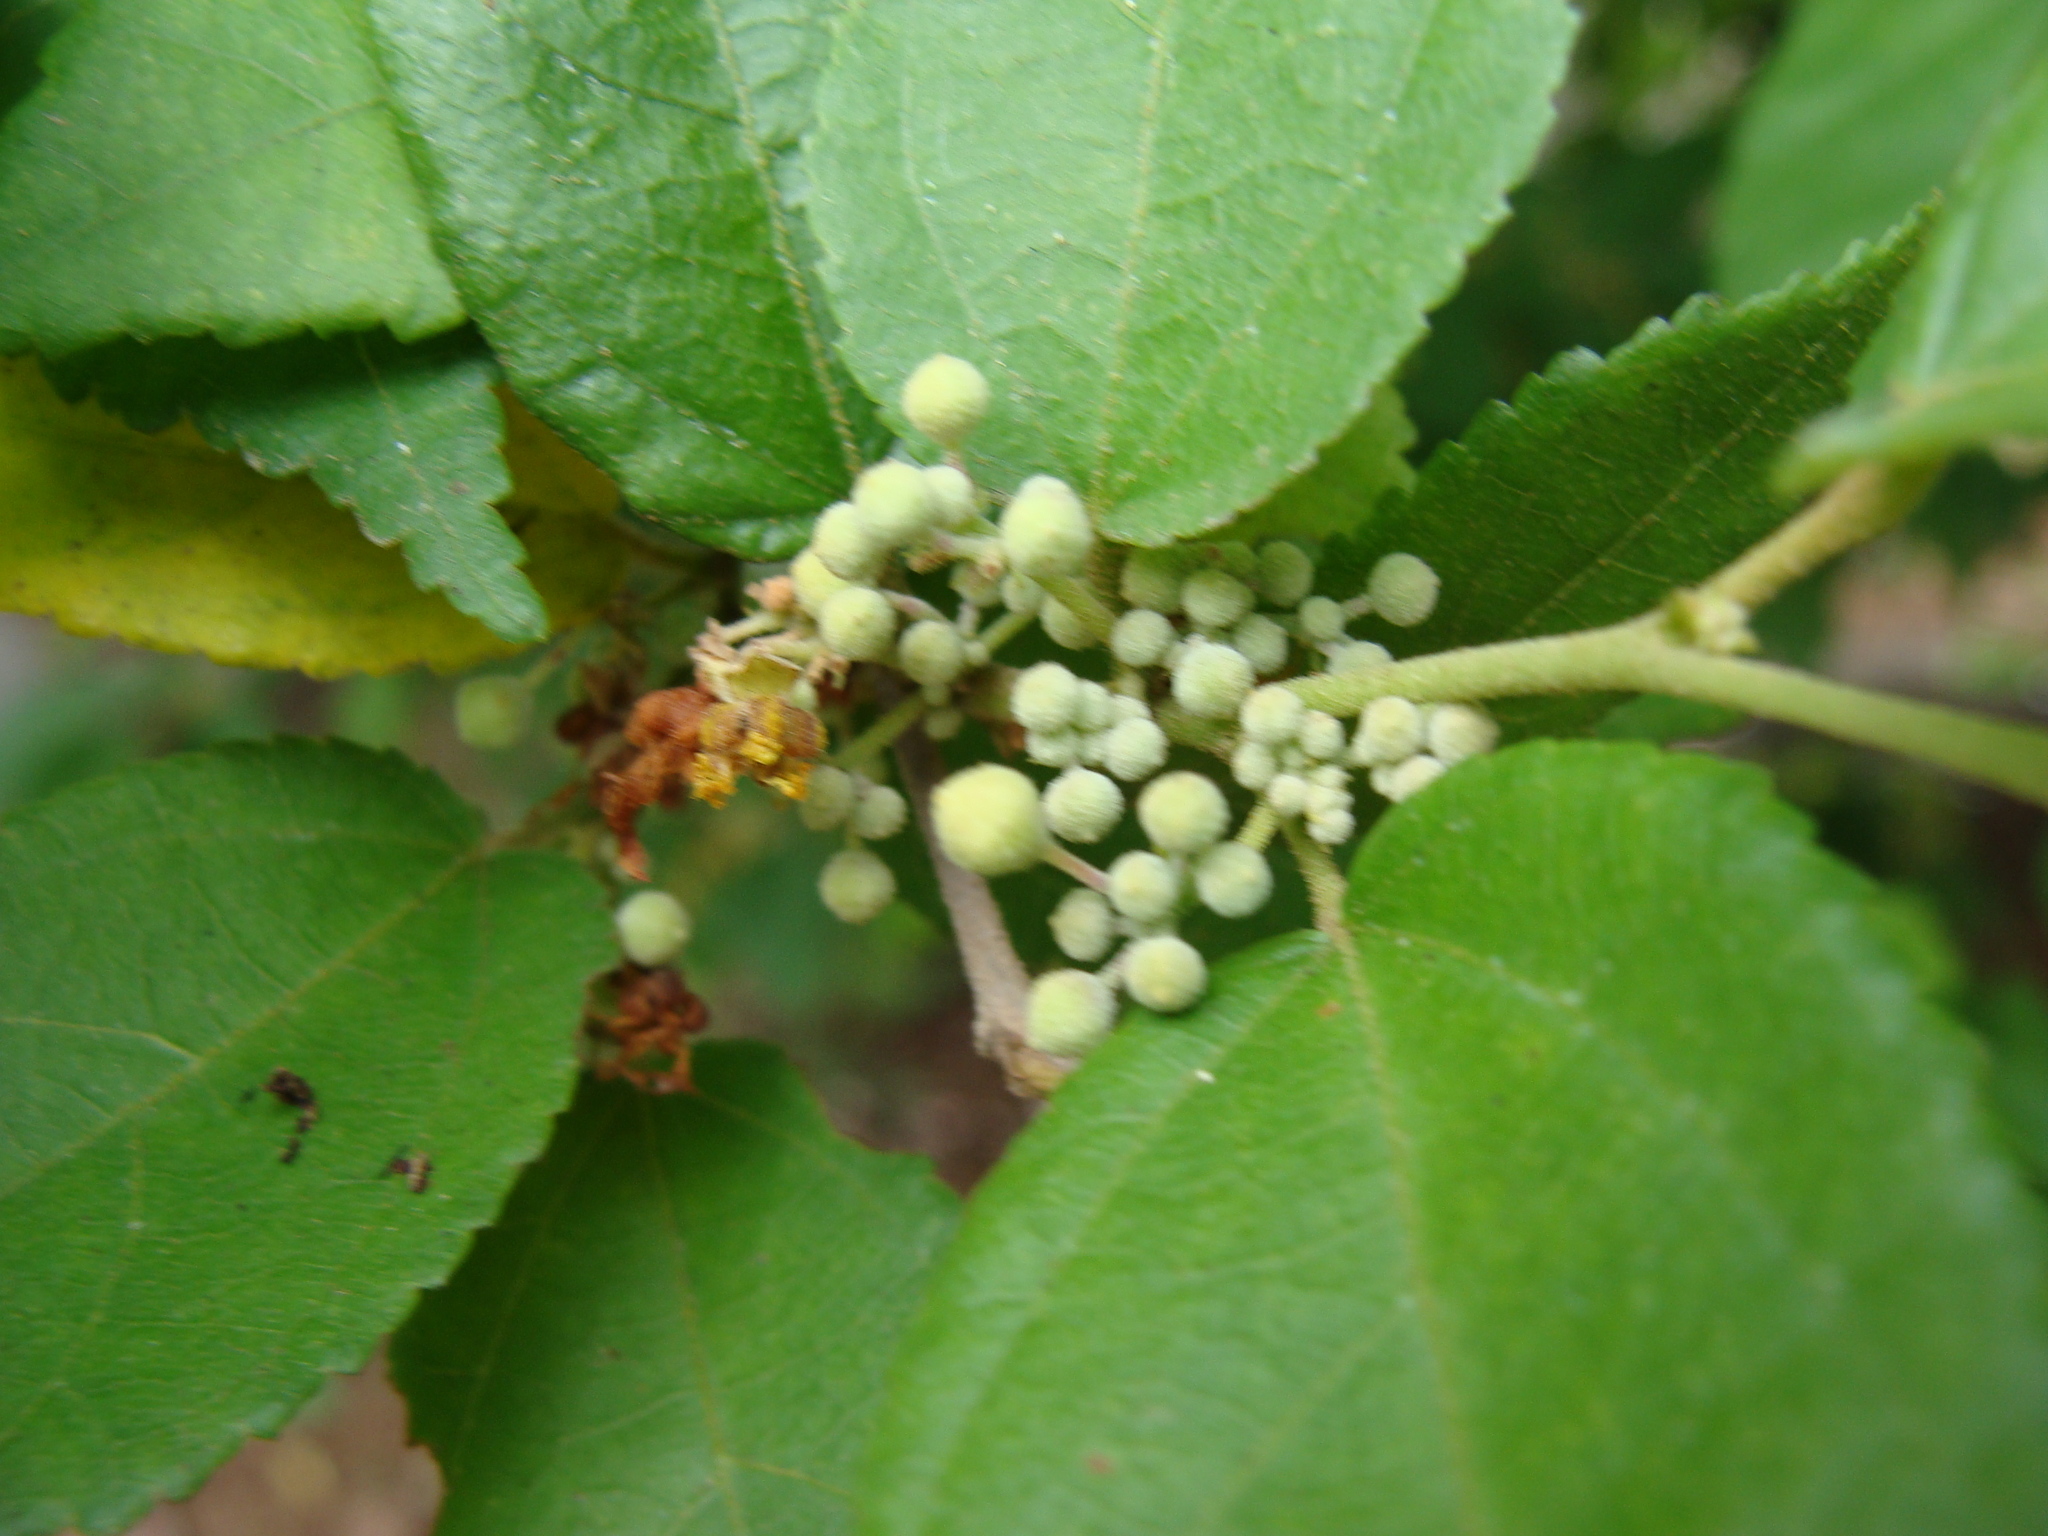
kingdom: Plantae
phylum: Tracheophyta
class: Magnoliopsida
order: Malvales
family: Malvaceae
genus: Guazuma
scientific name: Guazuma ulmifolia
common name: Bastard-cedar
